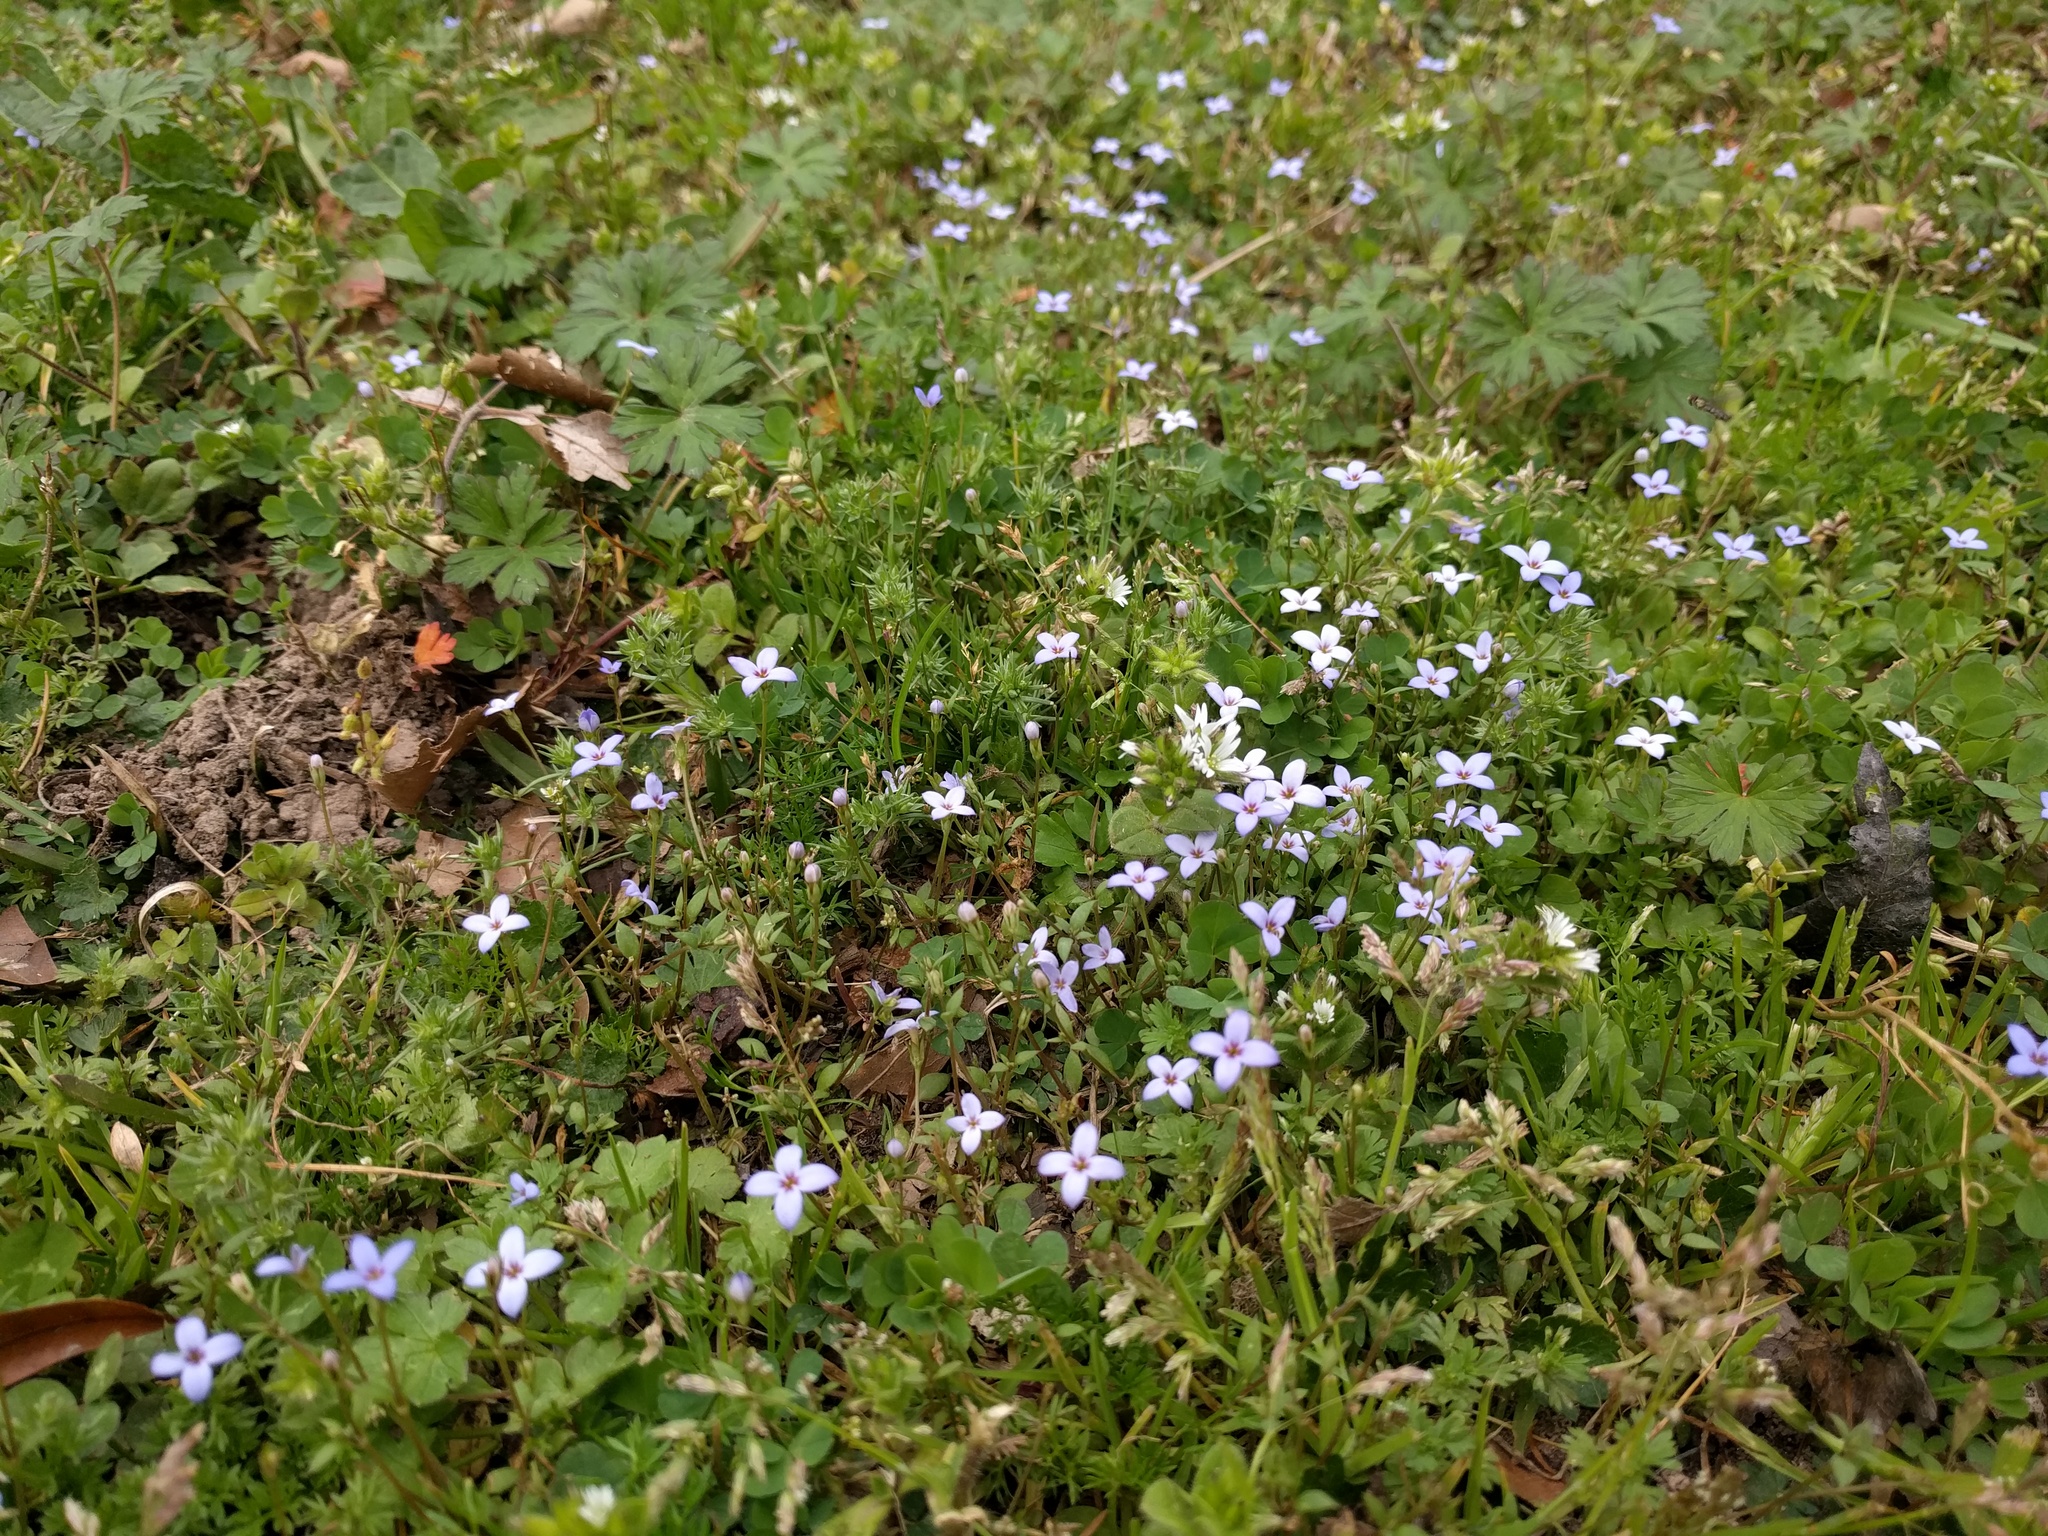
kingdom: Plantae
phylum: Tracheophyta
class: Magnoliopsida
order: Gentianales
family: Rubiaceae
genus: Houstonia
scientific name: Houstonia pusilla
